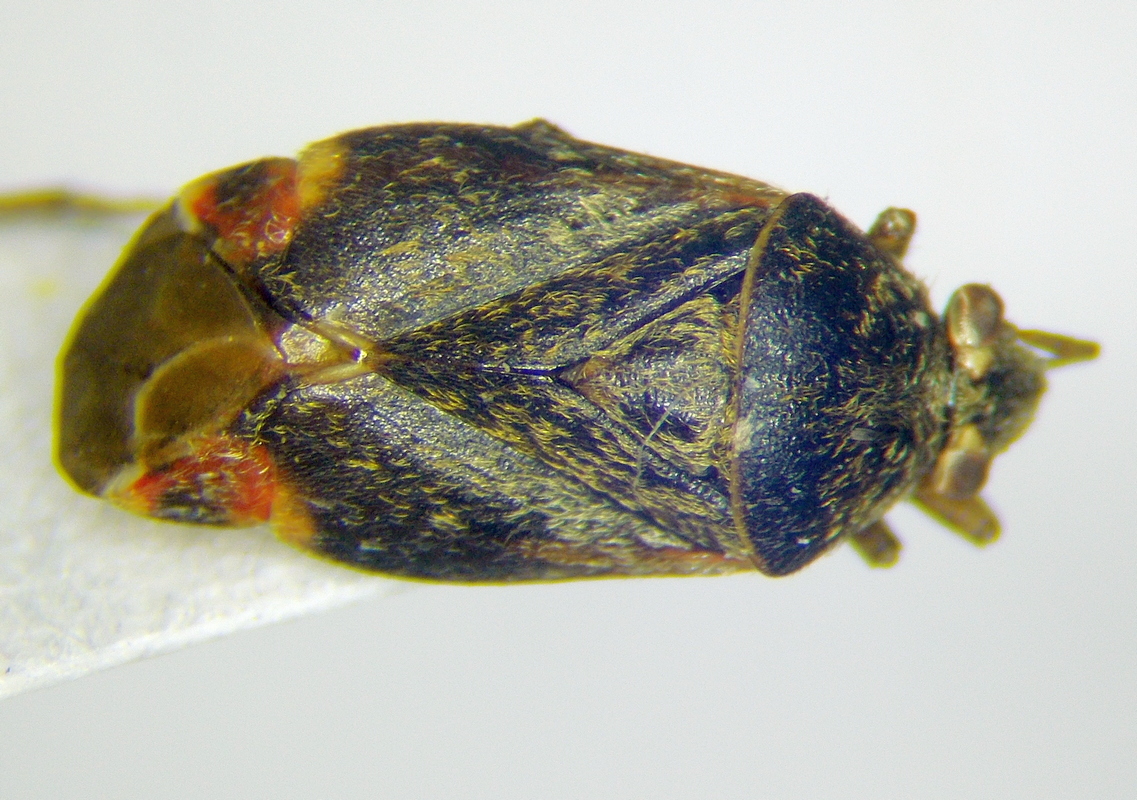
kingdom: Animalia
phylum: Arthropoda
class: Insecta
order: Hemiptera
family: Miridae
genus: Charagochilus
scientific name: Charagochilus gyllenhalii
